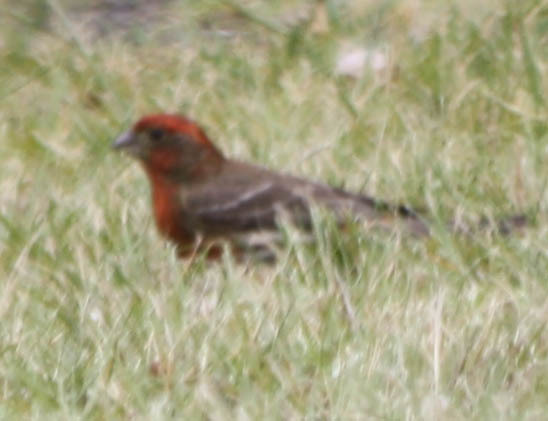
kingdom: Animalia
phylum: Chordata
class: Aves
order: Passeriformes
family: Fringillidae
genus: Haemorhous
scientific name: Haemorhous mexicanus
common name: House finch
